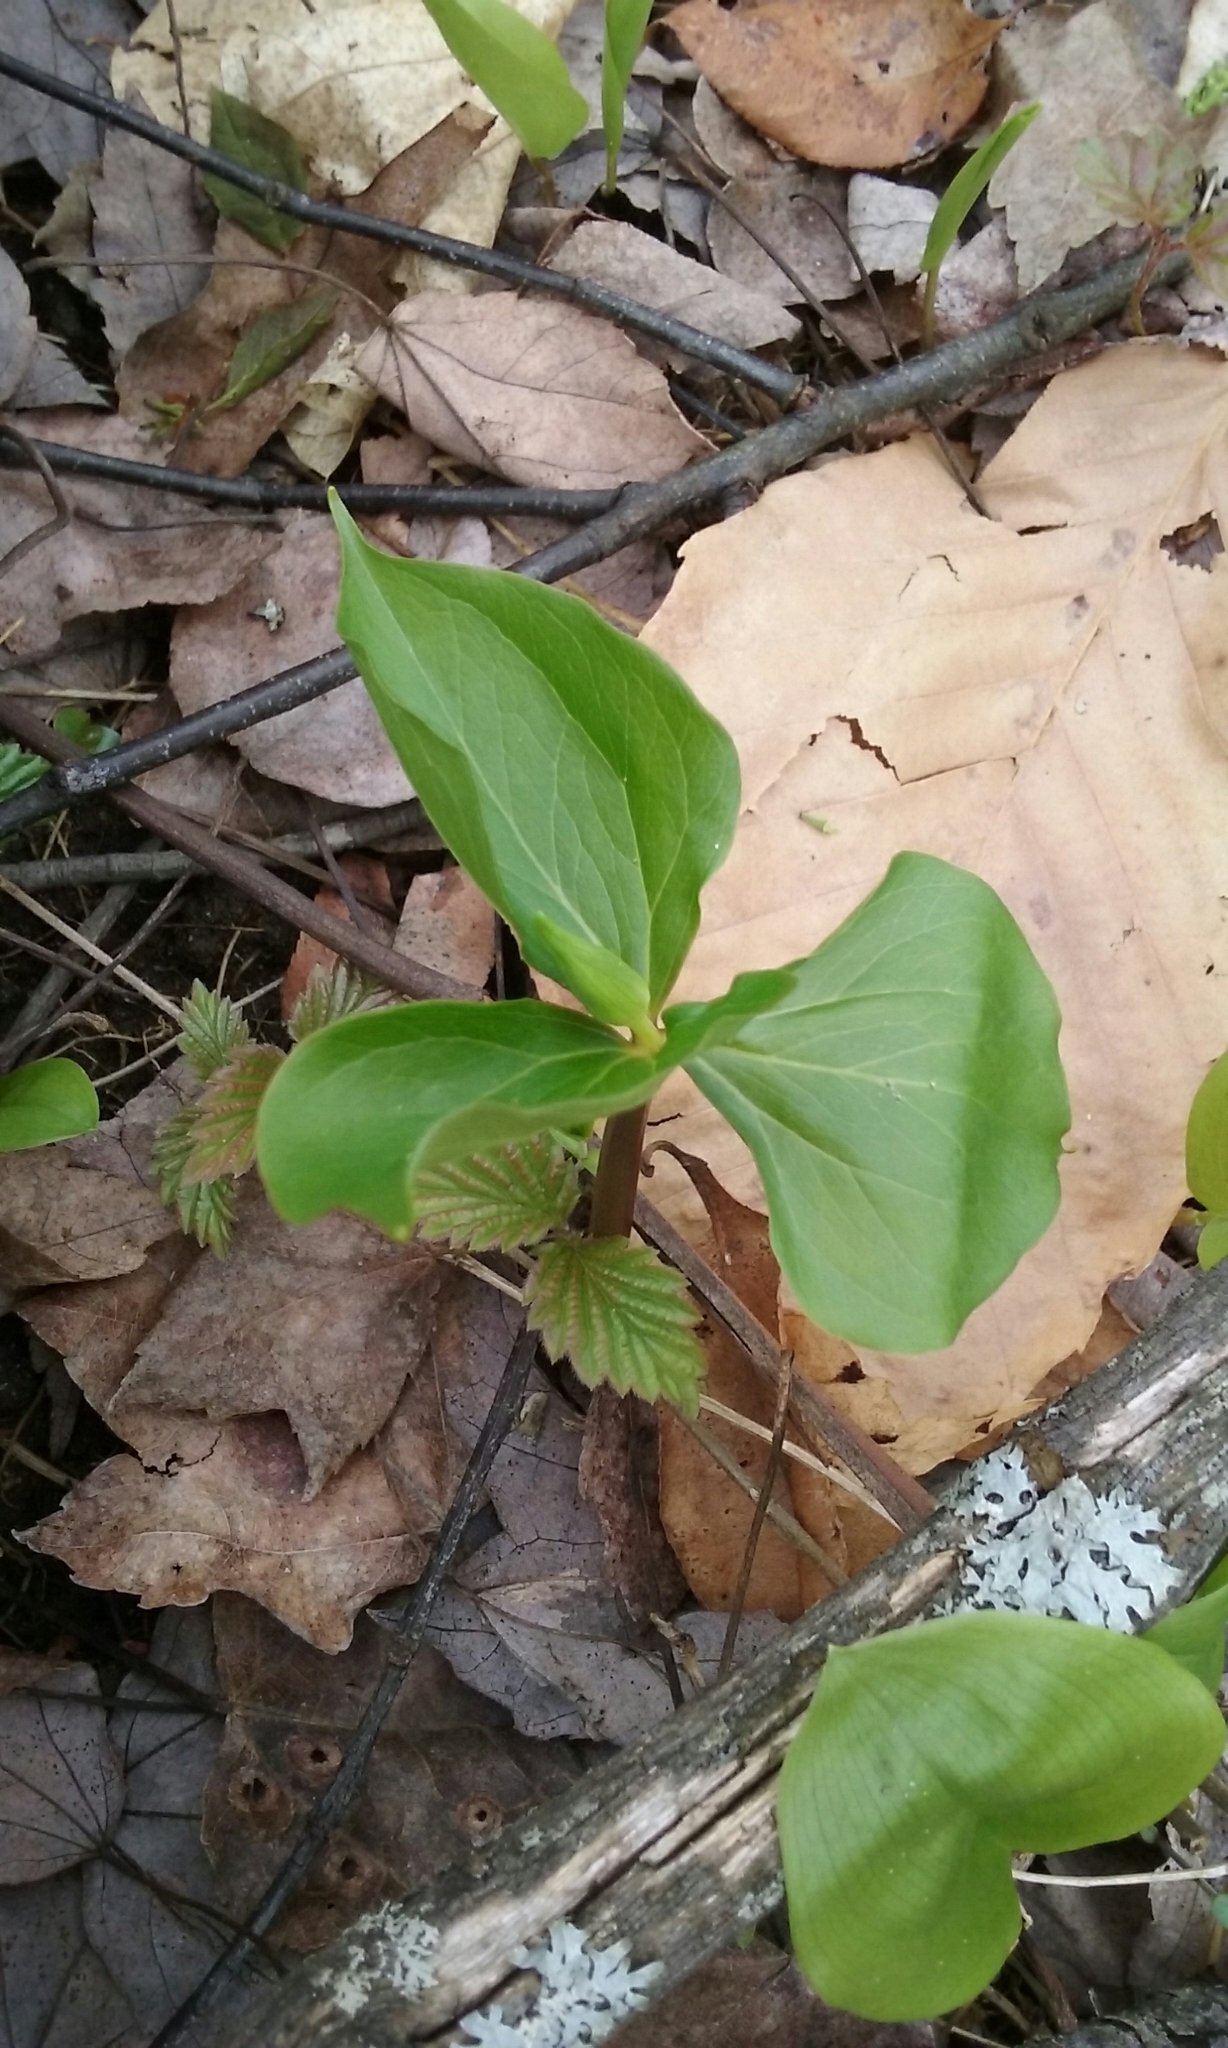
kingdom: Plantae
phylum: Tracheophyta
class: Liliopsida
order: Liliales
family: Melanthiaceae
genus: Trillium
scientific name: Trillium
